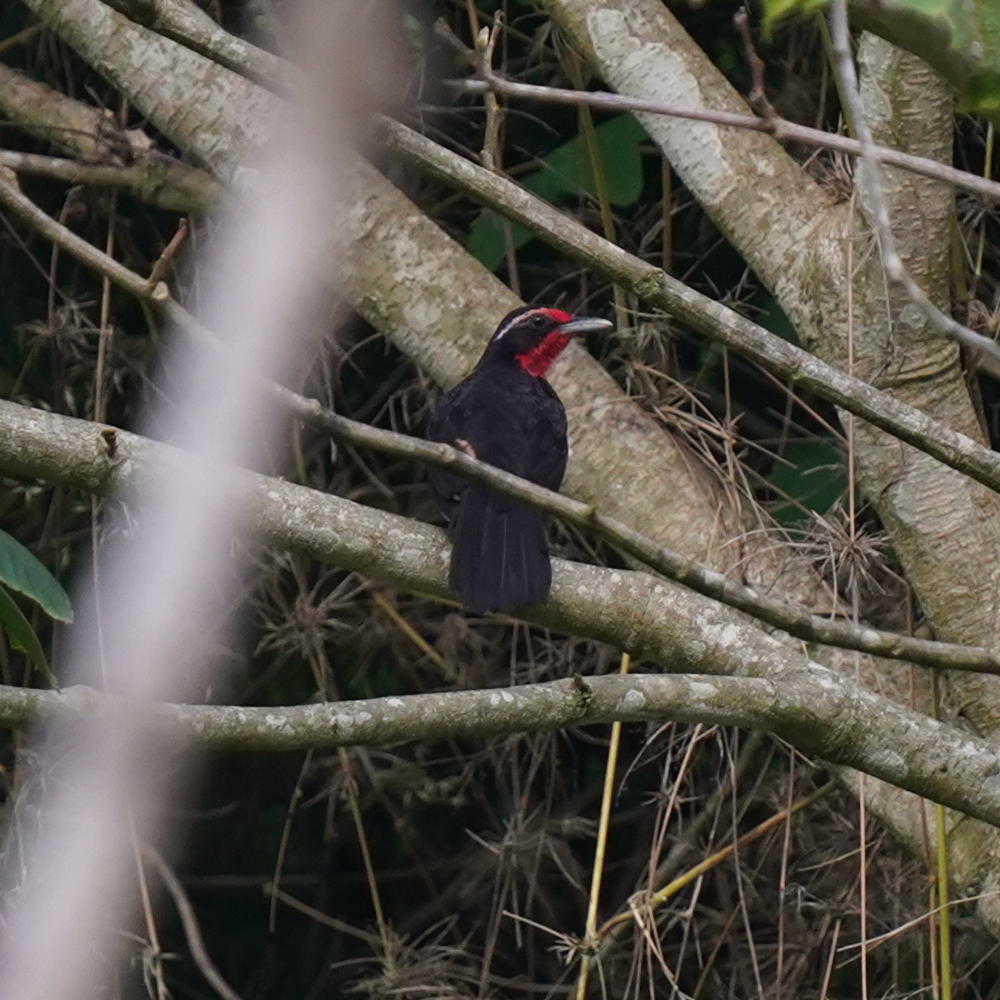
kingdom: Animalia
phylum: Chordata
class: Aves
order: Passeriformes
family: Rhodinocichlidae
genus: Rhodinocichla
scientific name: Rhodinocichla rosea
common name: Rosy thrush-tanager
